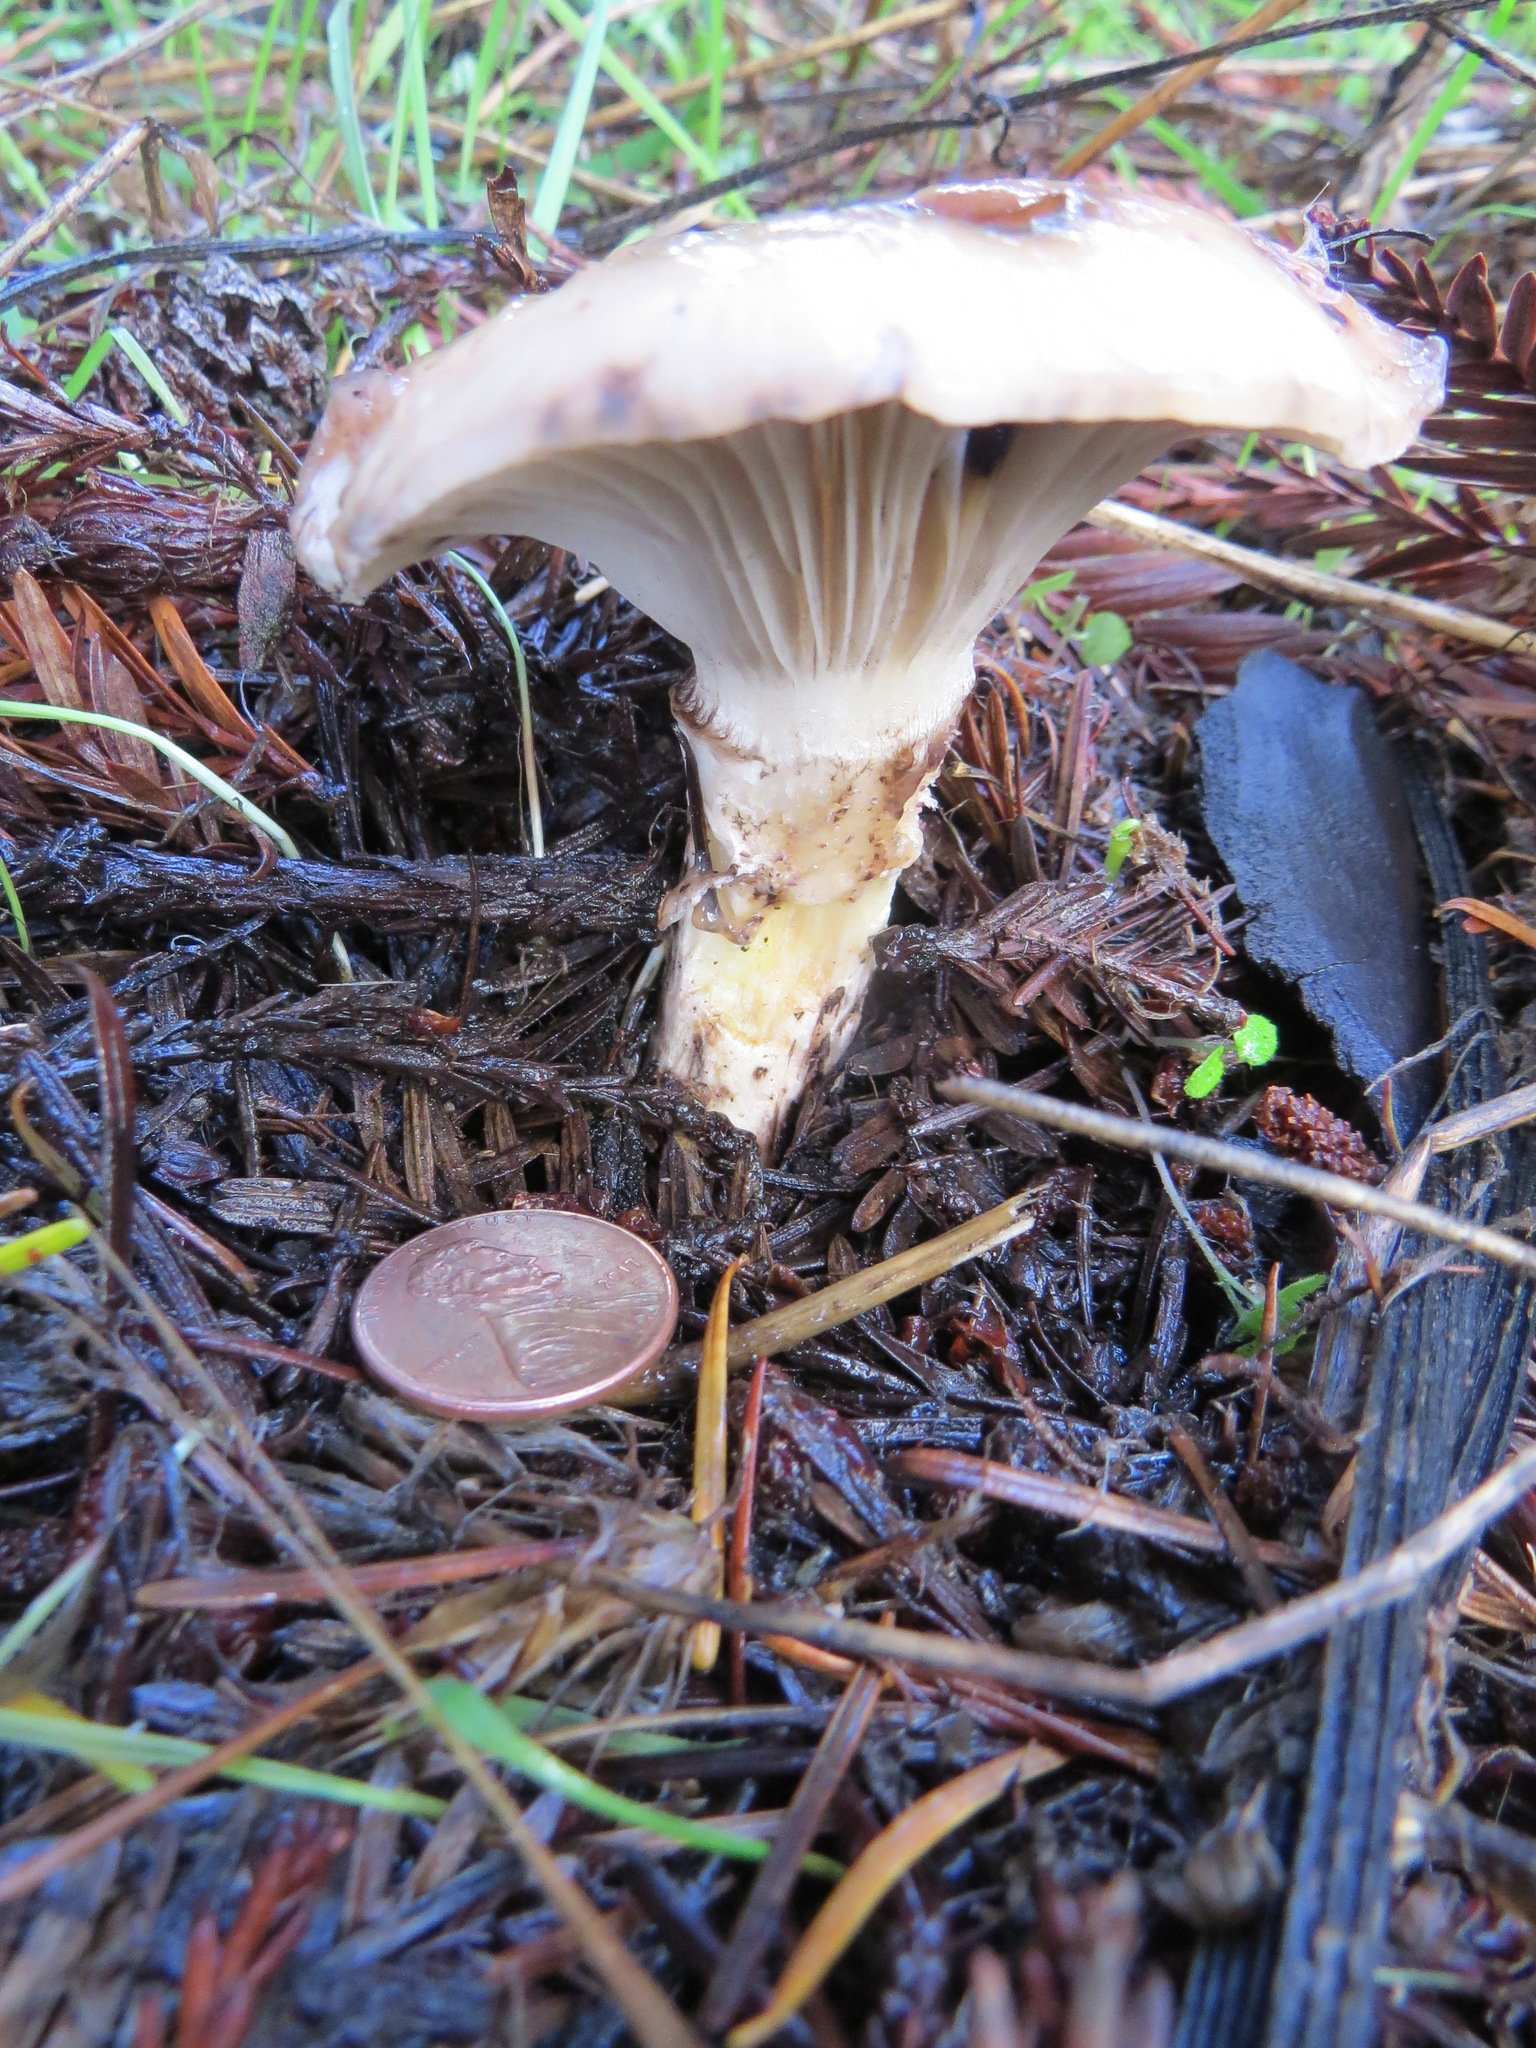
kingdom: Fungi
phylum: Basidiomycota
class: Agaricomycetes
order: Boletales
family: Gomphidiaceae
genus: Gomphidius
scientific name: Gomphidius oregonensis
